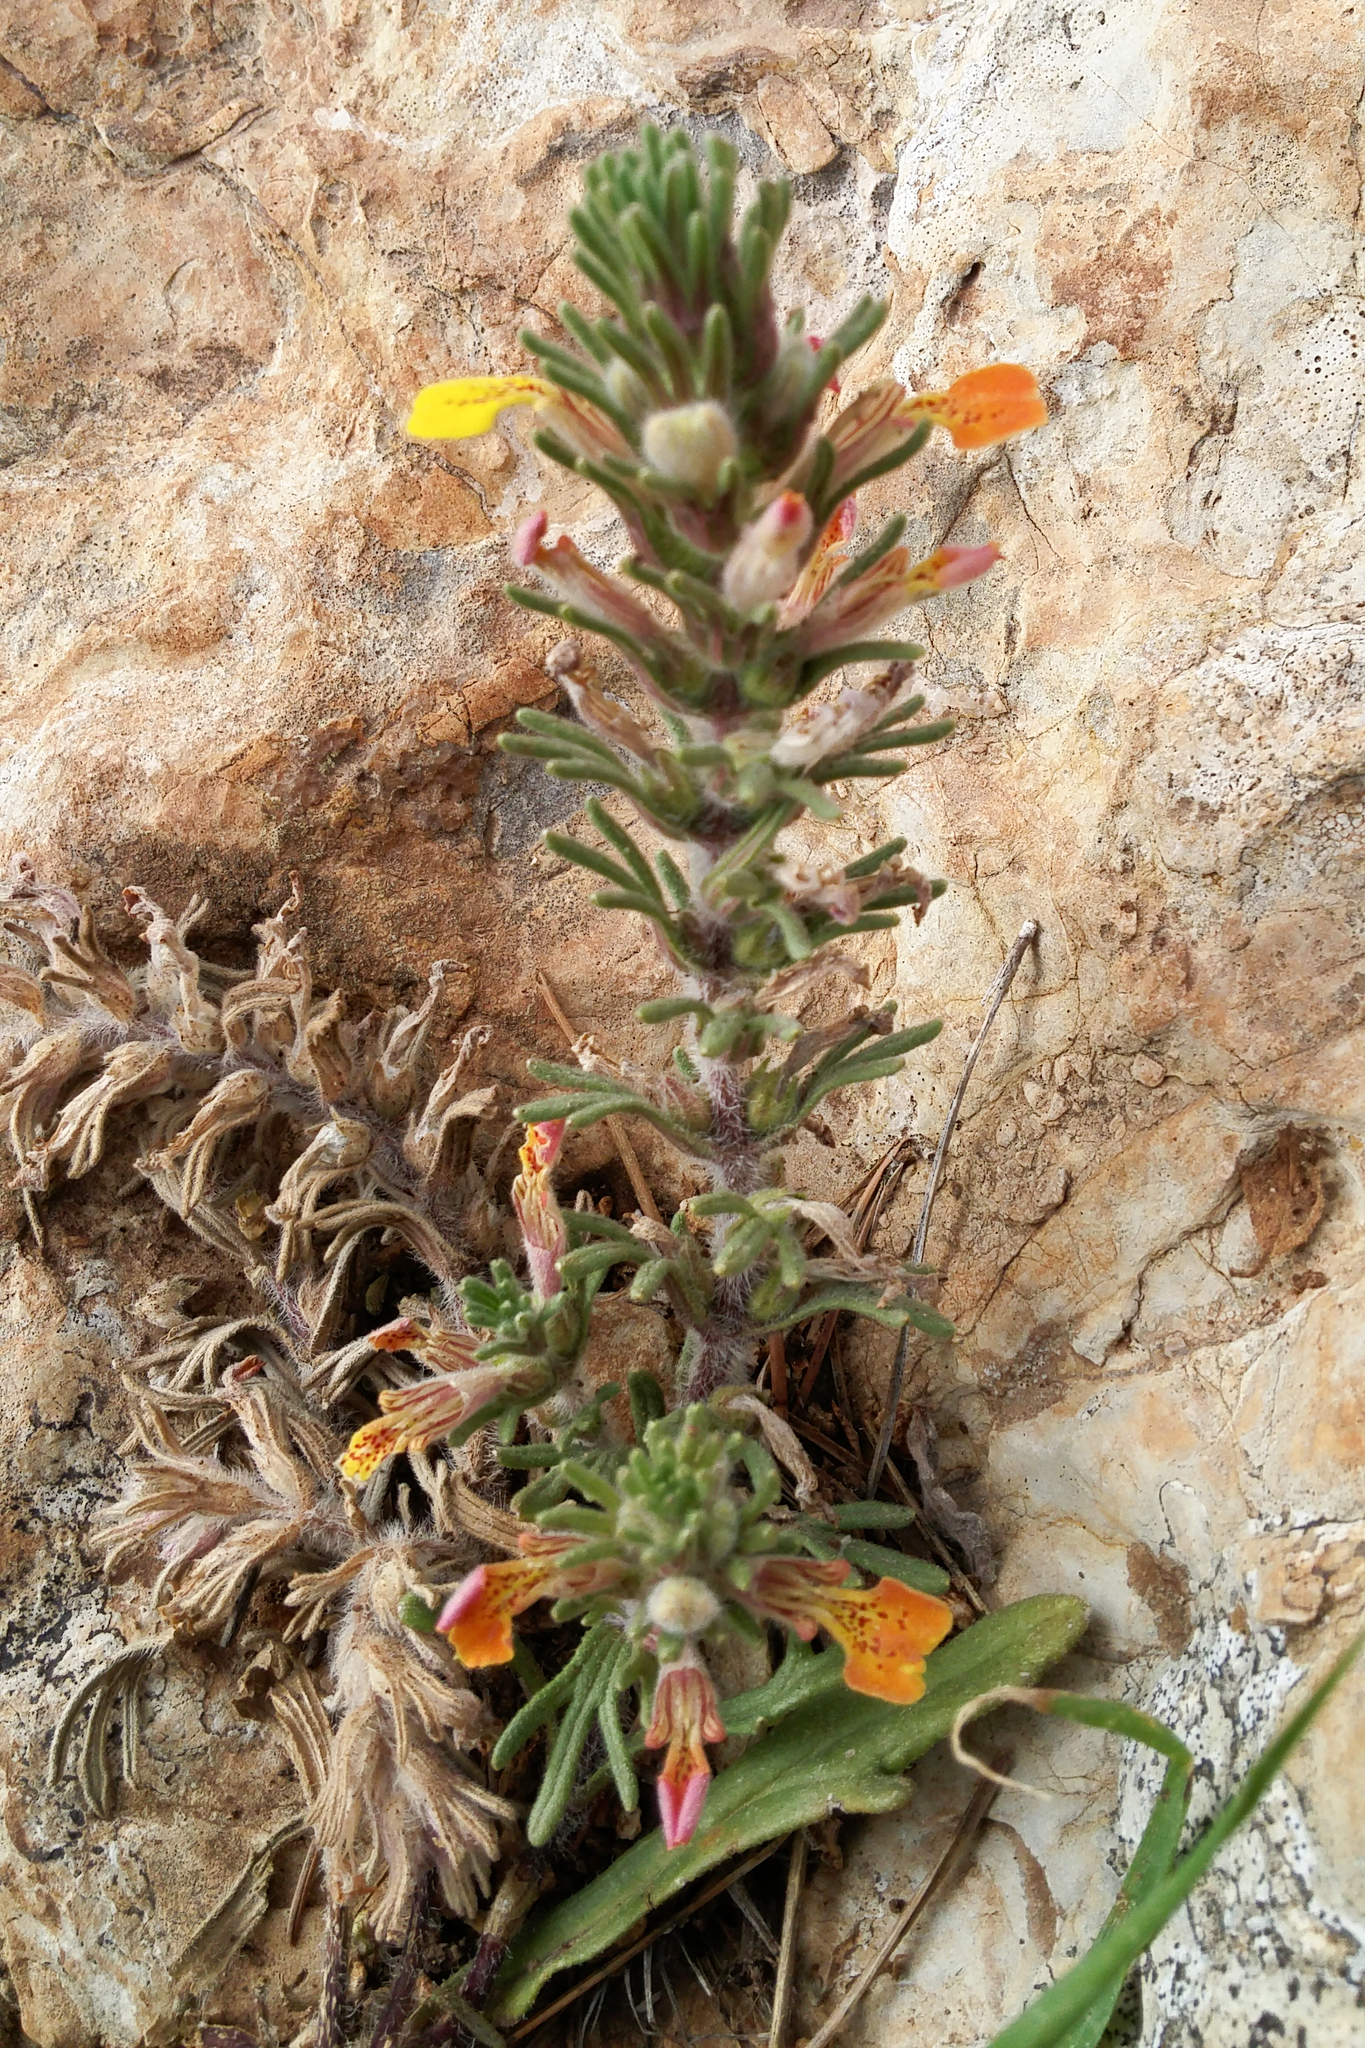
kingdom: Plantae
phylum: Tracheophyta
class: Magnoliopsida
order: Lamiales
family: Lamiaceae
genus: Ajuga
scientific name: Ajuga chamaepitys
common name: Ground-pine
